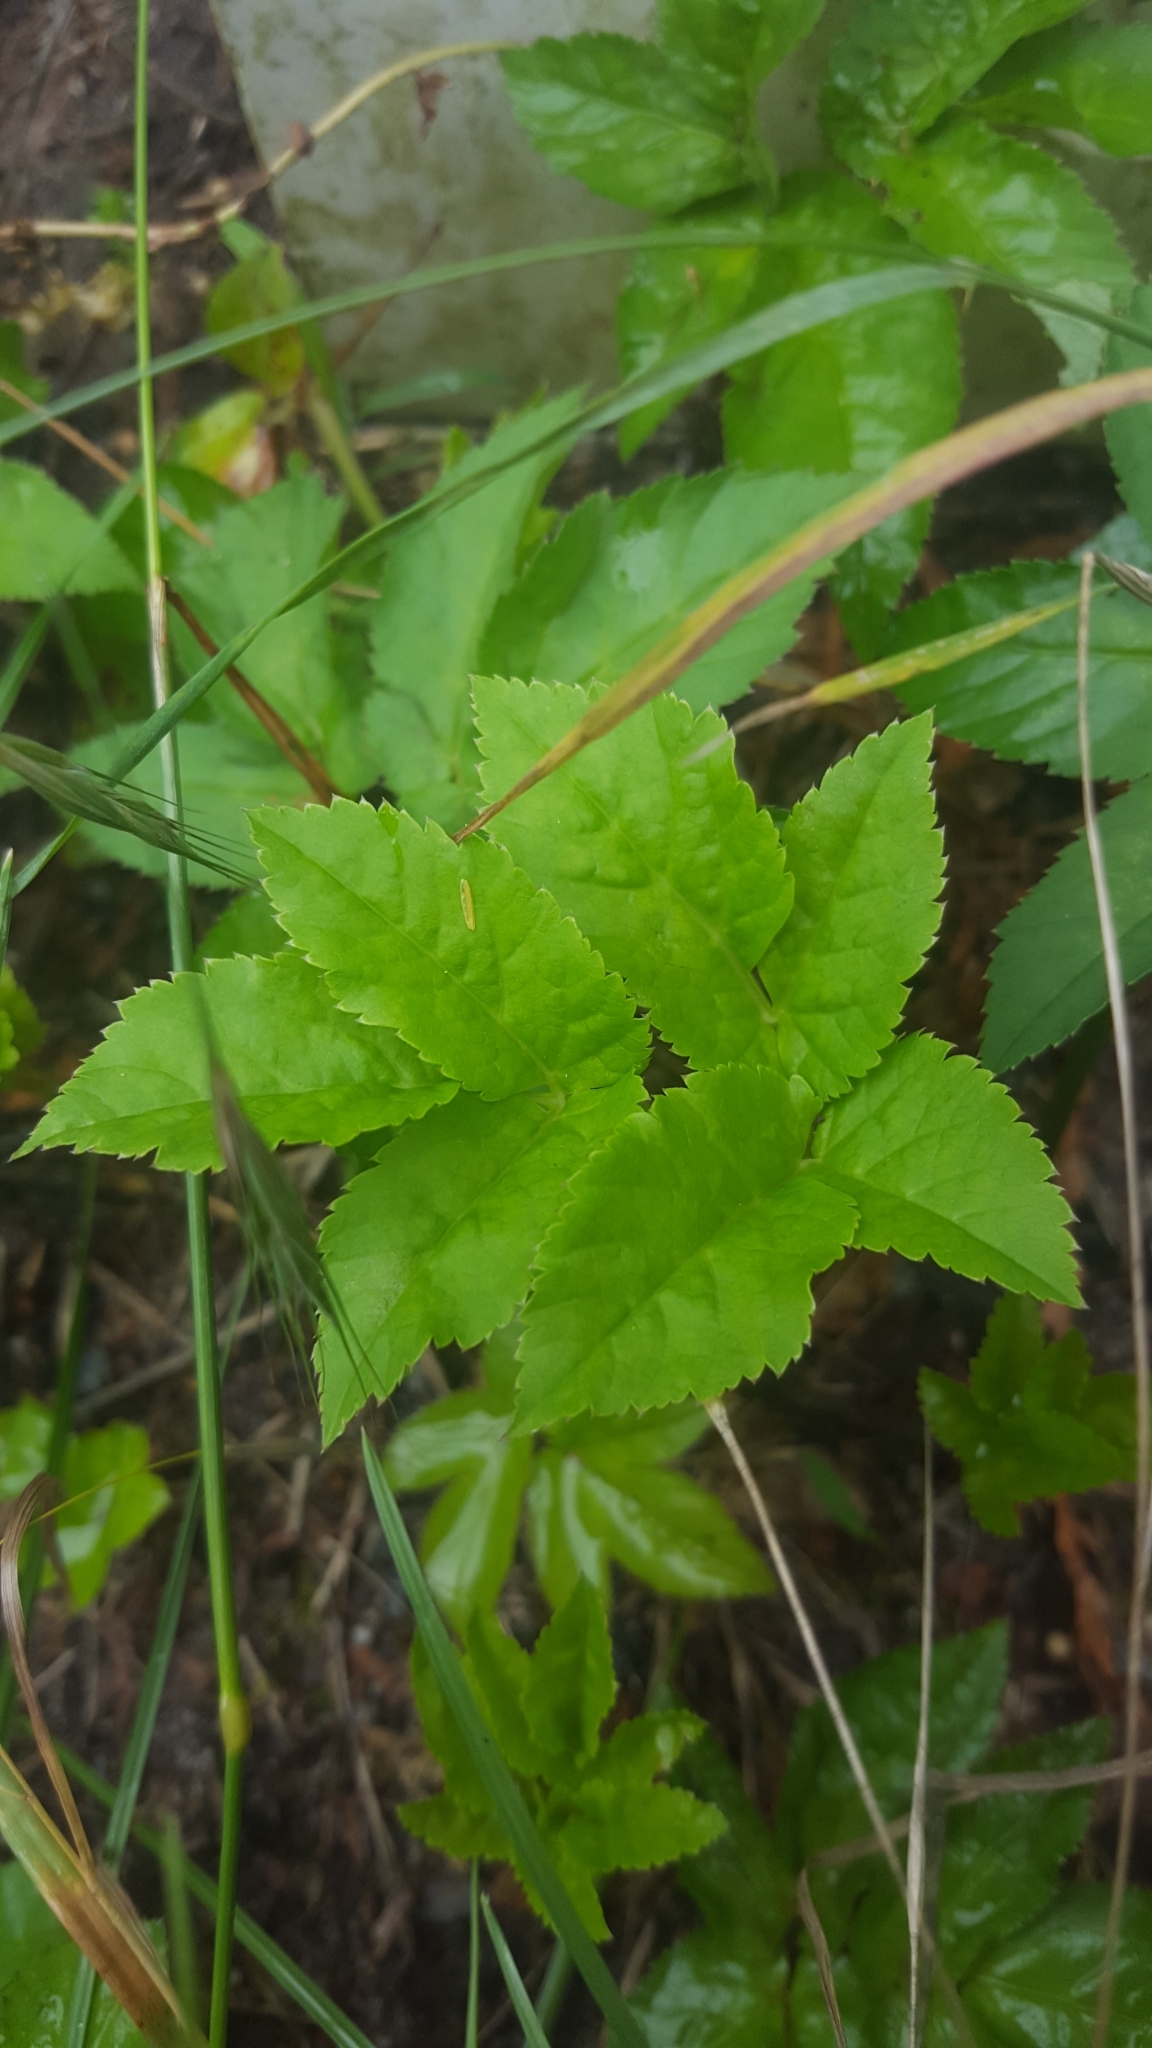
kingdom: Plantae
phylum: Tracheophyta
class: Magnoliopsida
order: Apiales
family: Apiaceae
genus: Aegopodium
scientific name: Aegopodium podagraria
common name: Ground-elder
